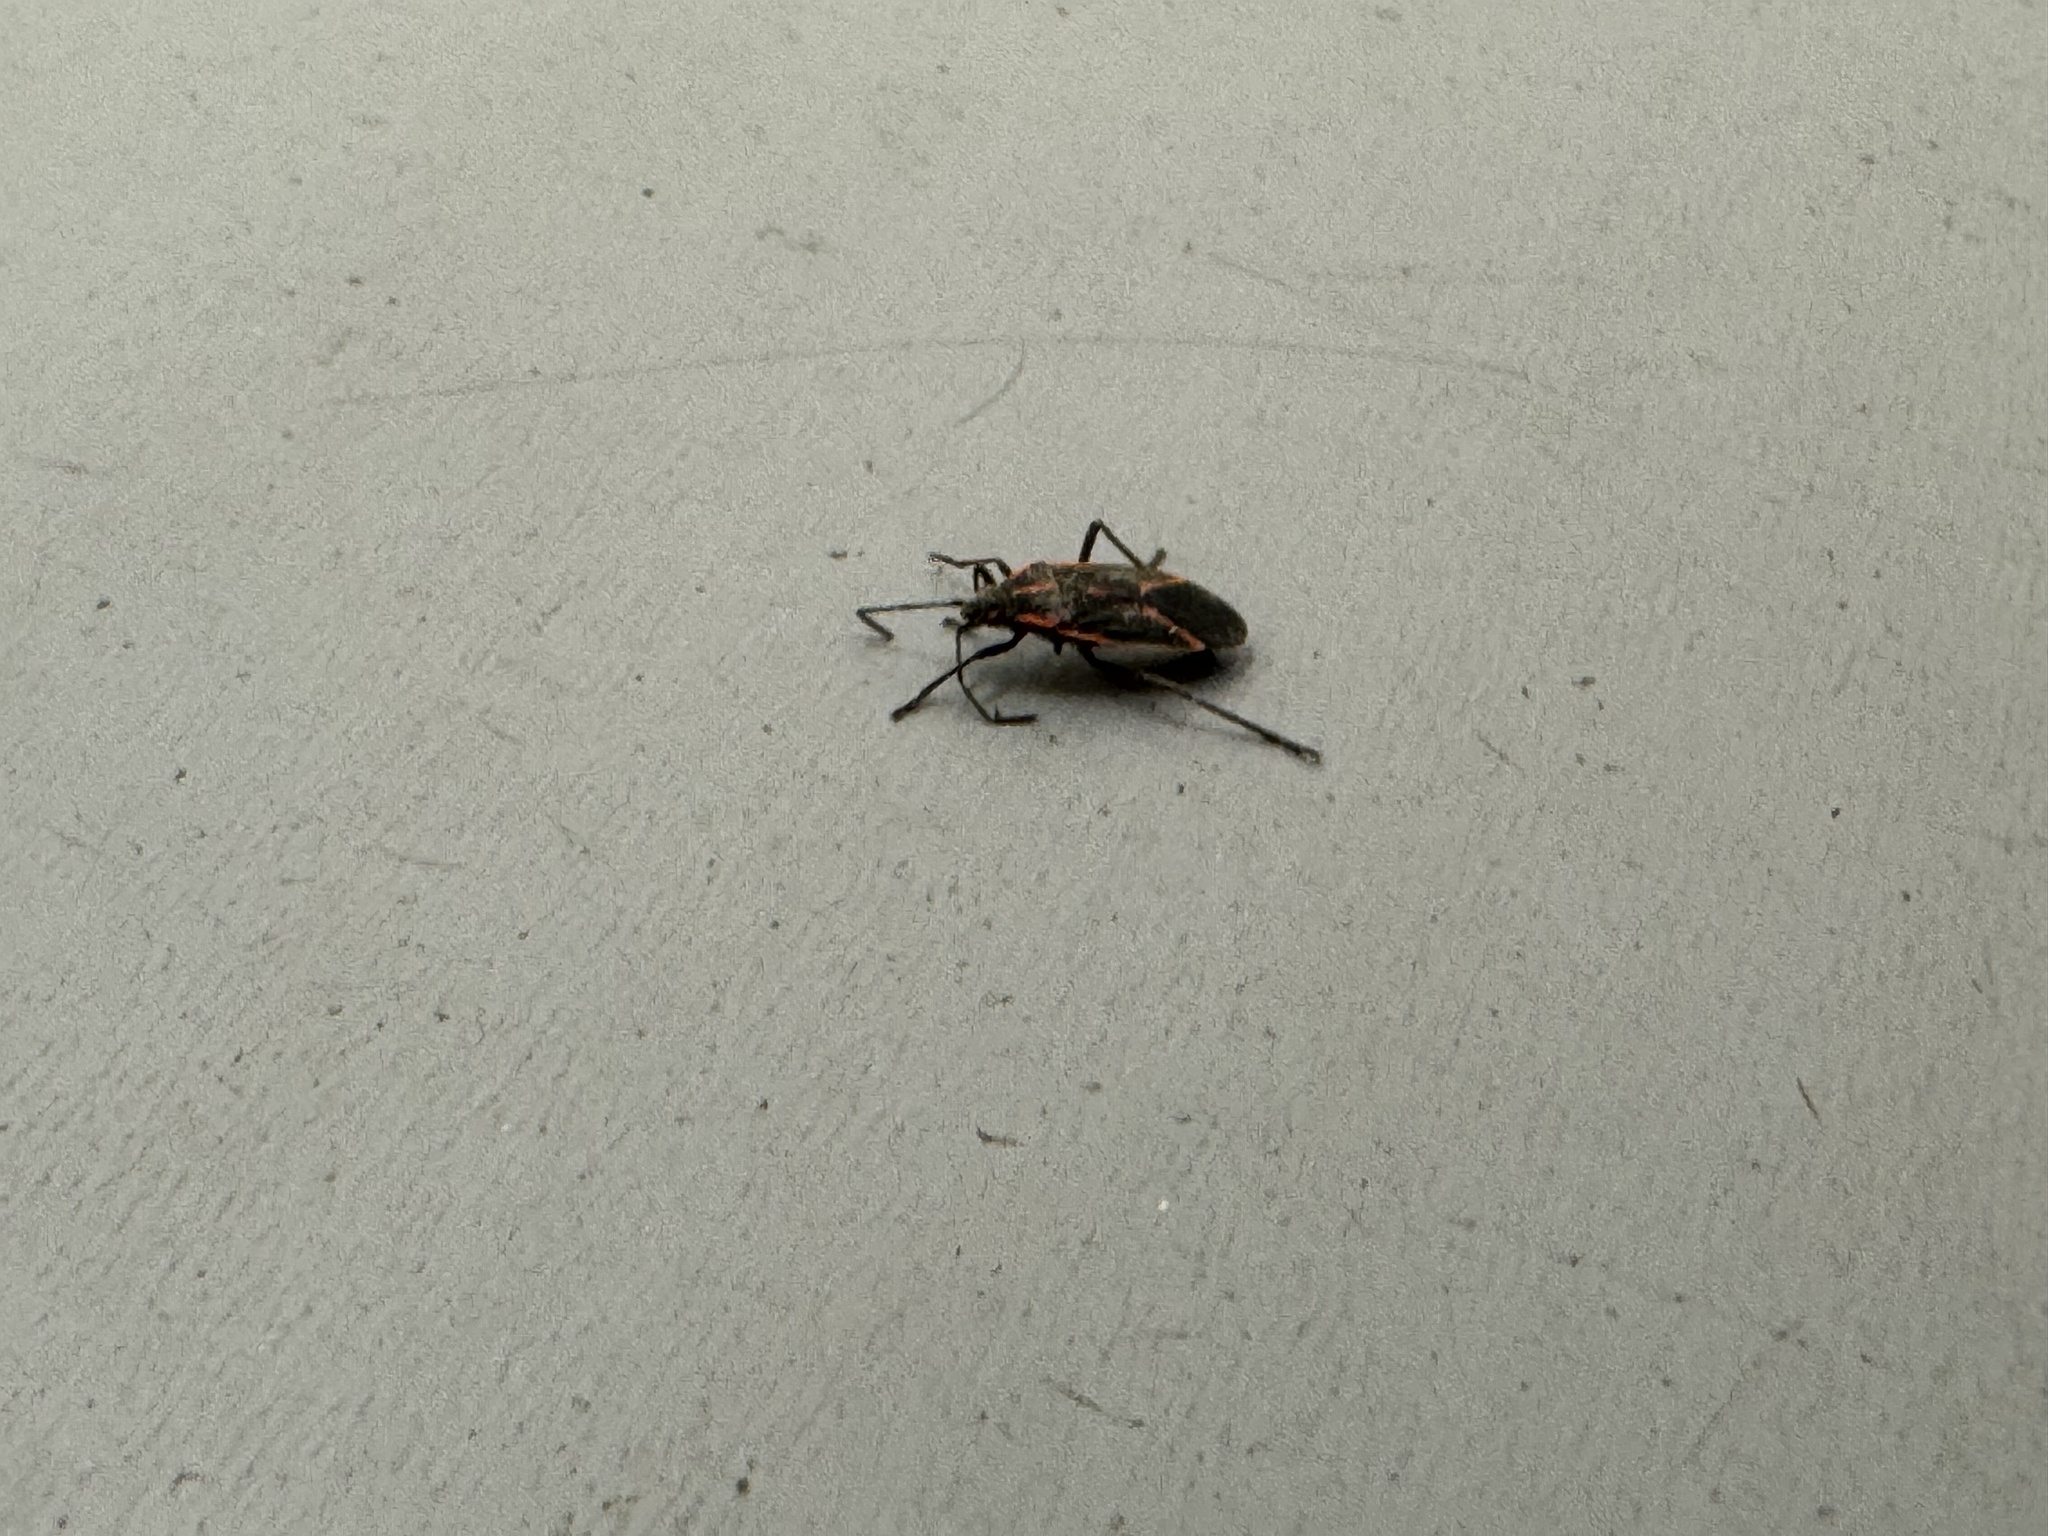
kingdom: Animalia
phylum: Arthropoda
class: Insecta
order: Hemiptera
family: Rhopalidae
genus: Boisea
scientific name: Boisea trivittata
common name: Boxelder bug
